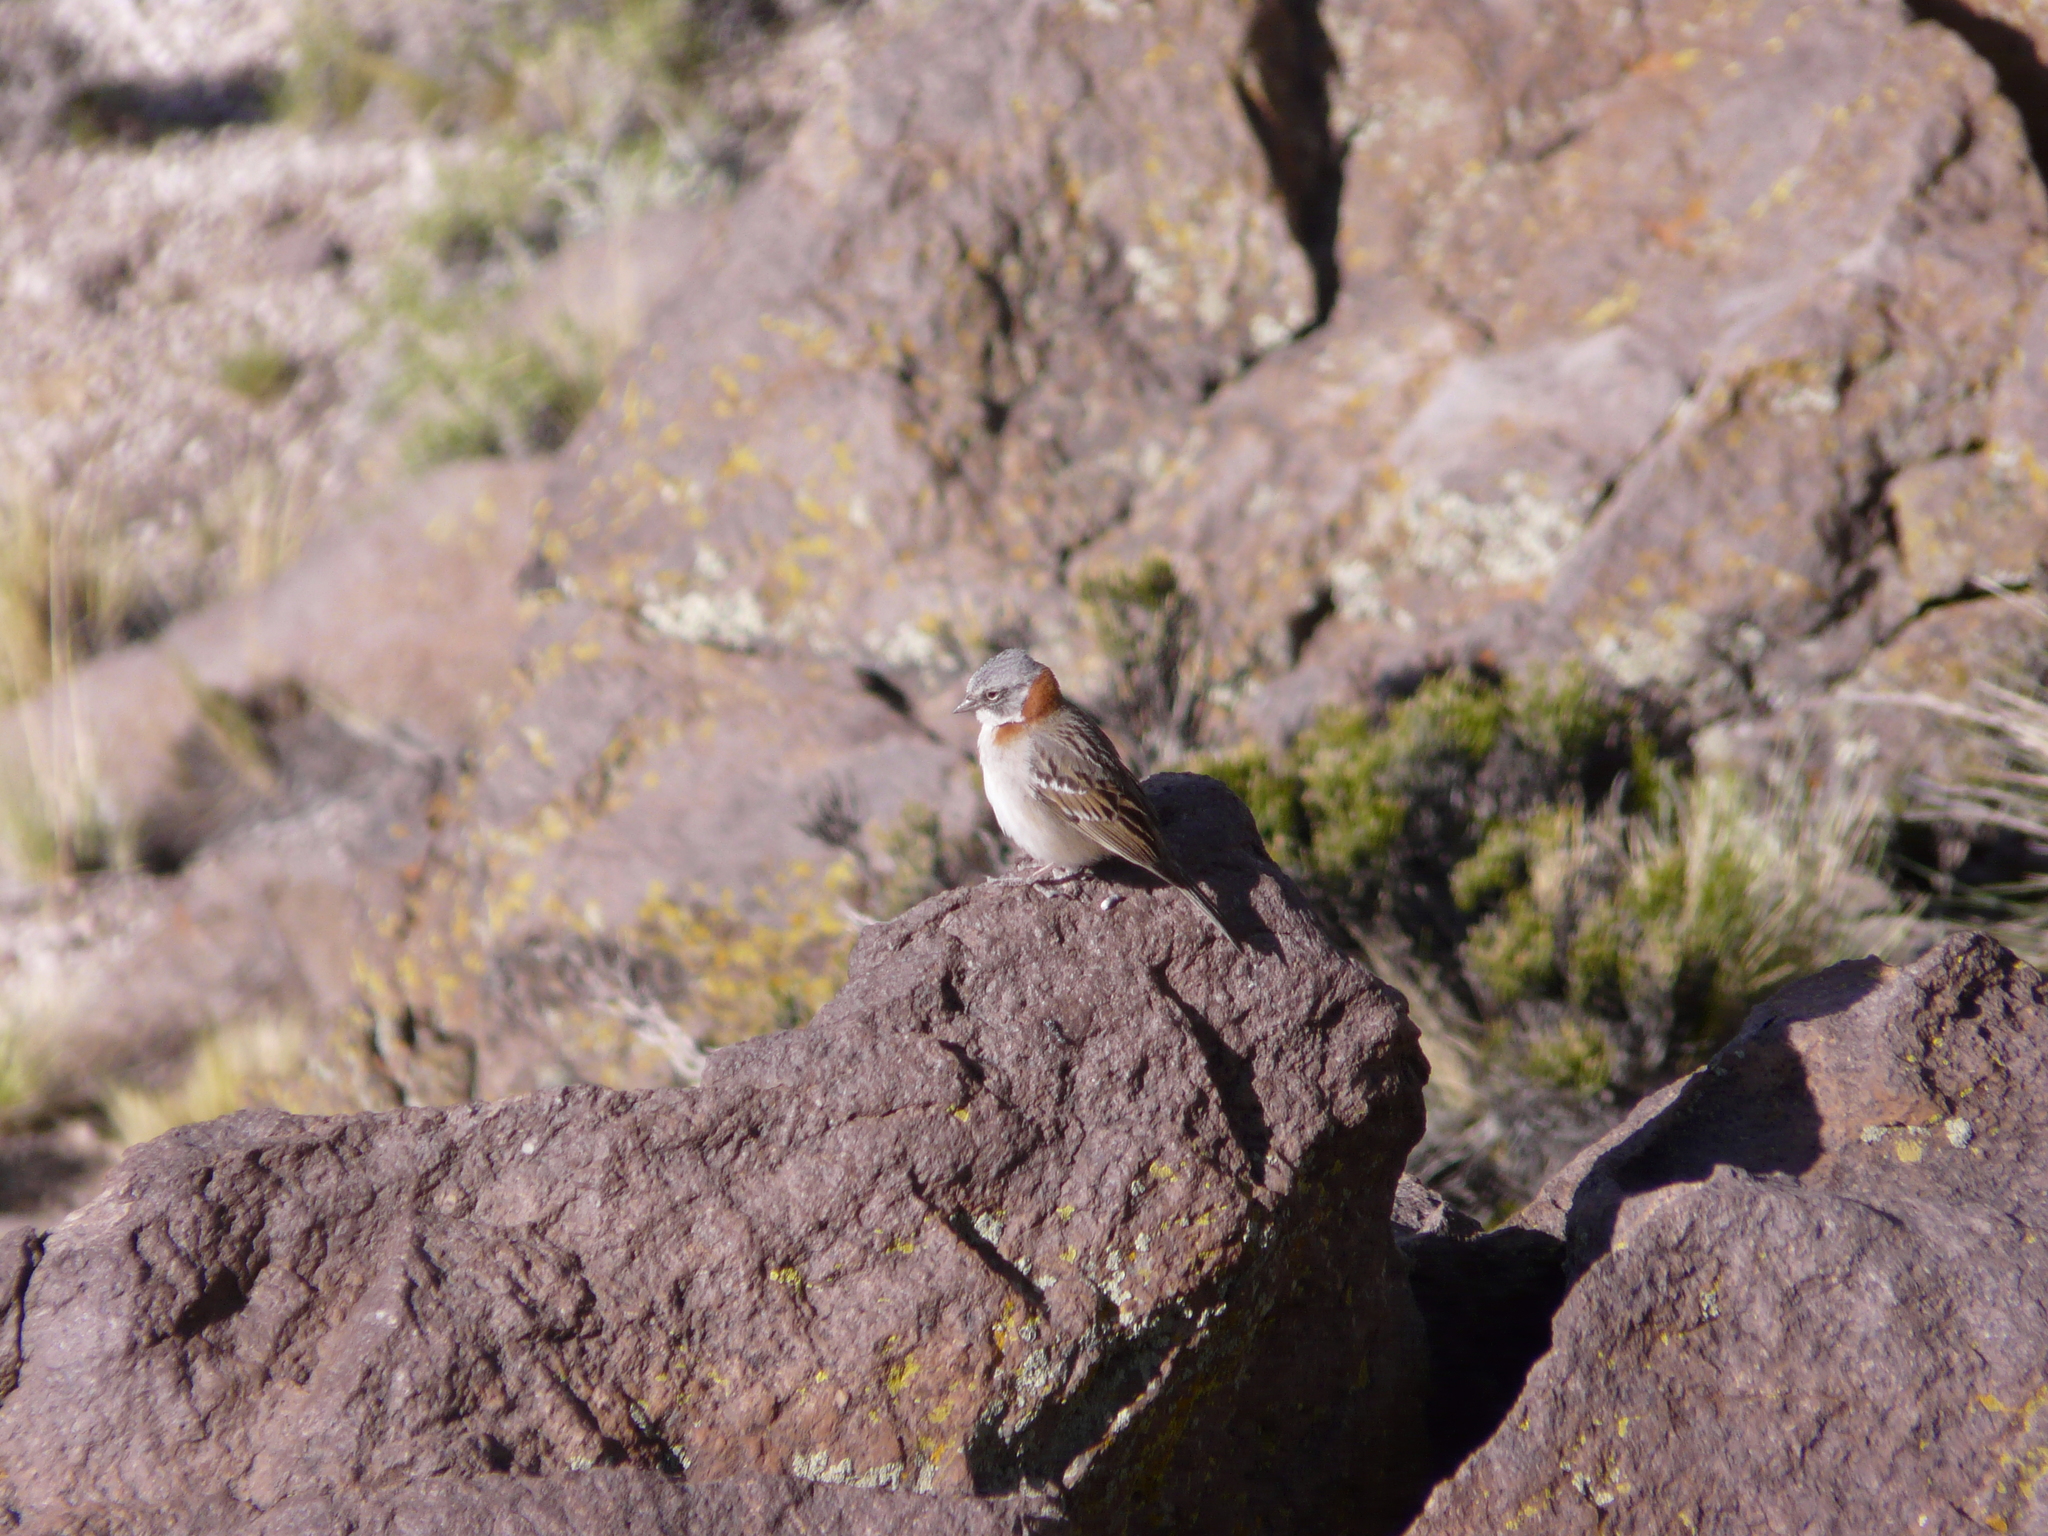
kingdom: Animalia
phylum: Chordata
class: Aves
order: Passeriformes
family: Passerellidae
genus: Zonotrichia
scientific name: Zonotrichia capensis
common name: Rufous-collared sparrow
